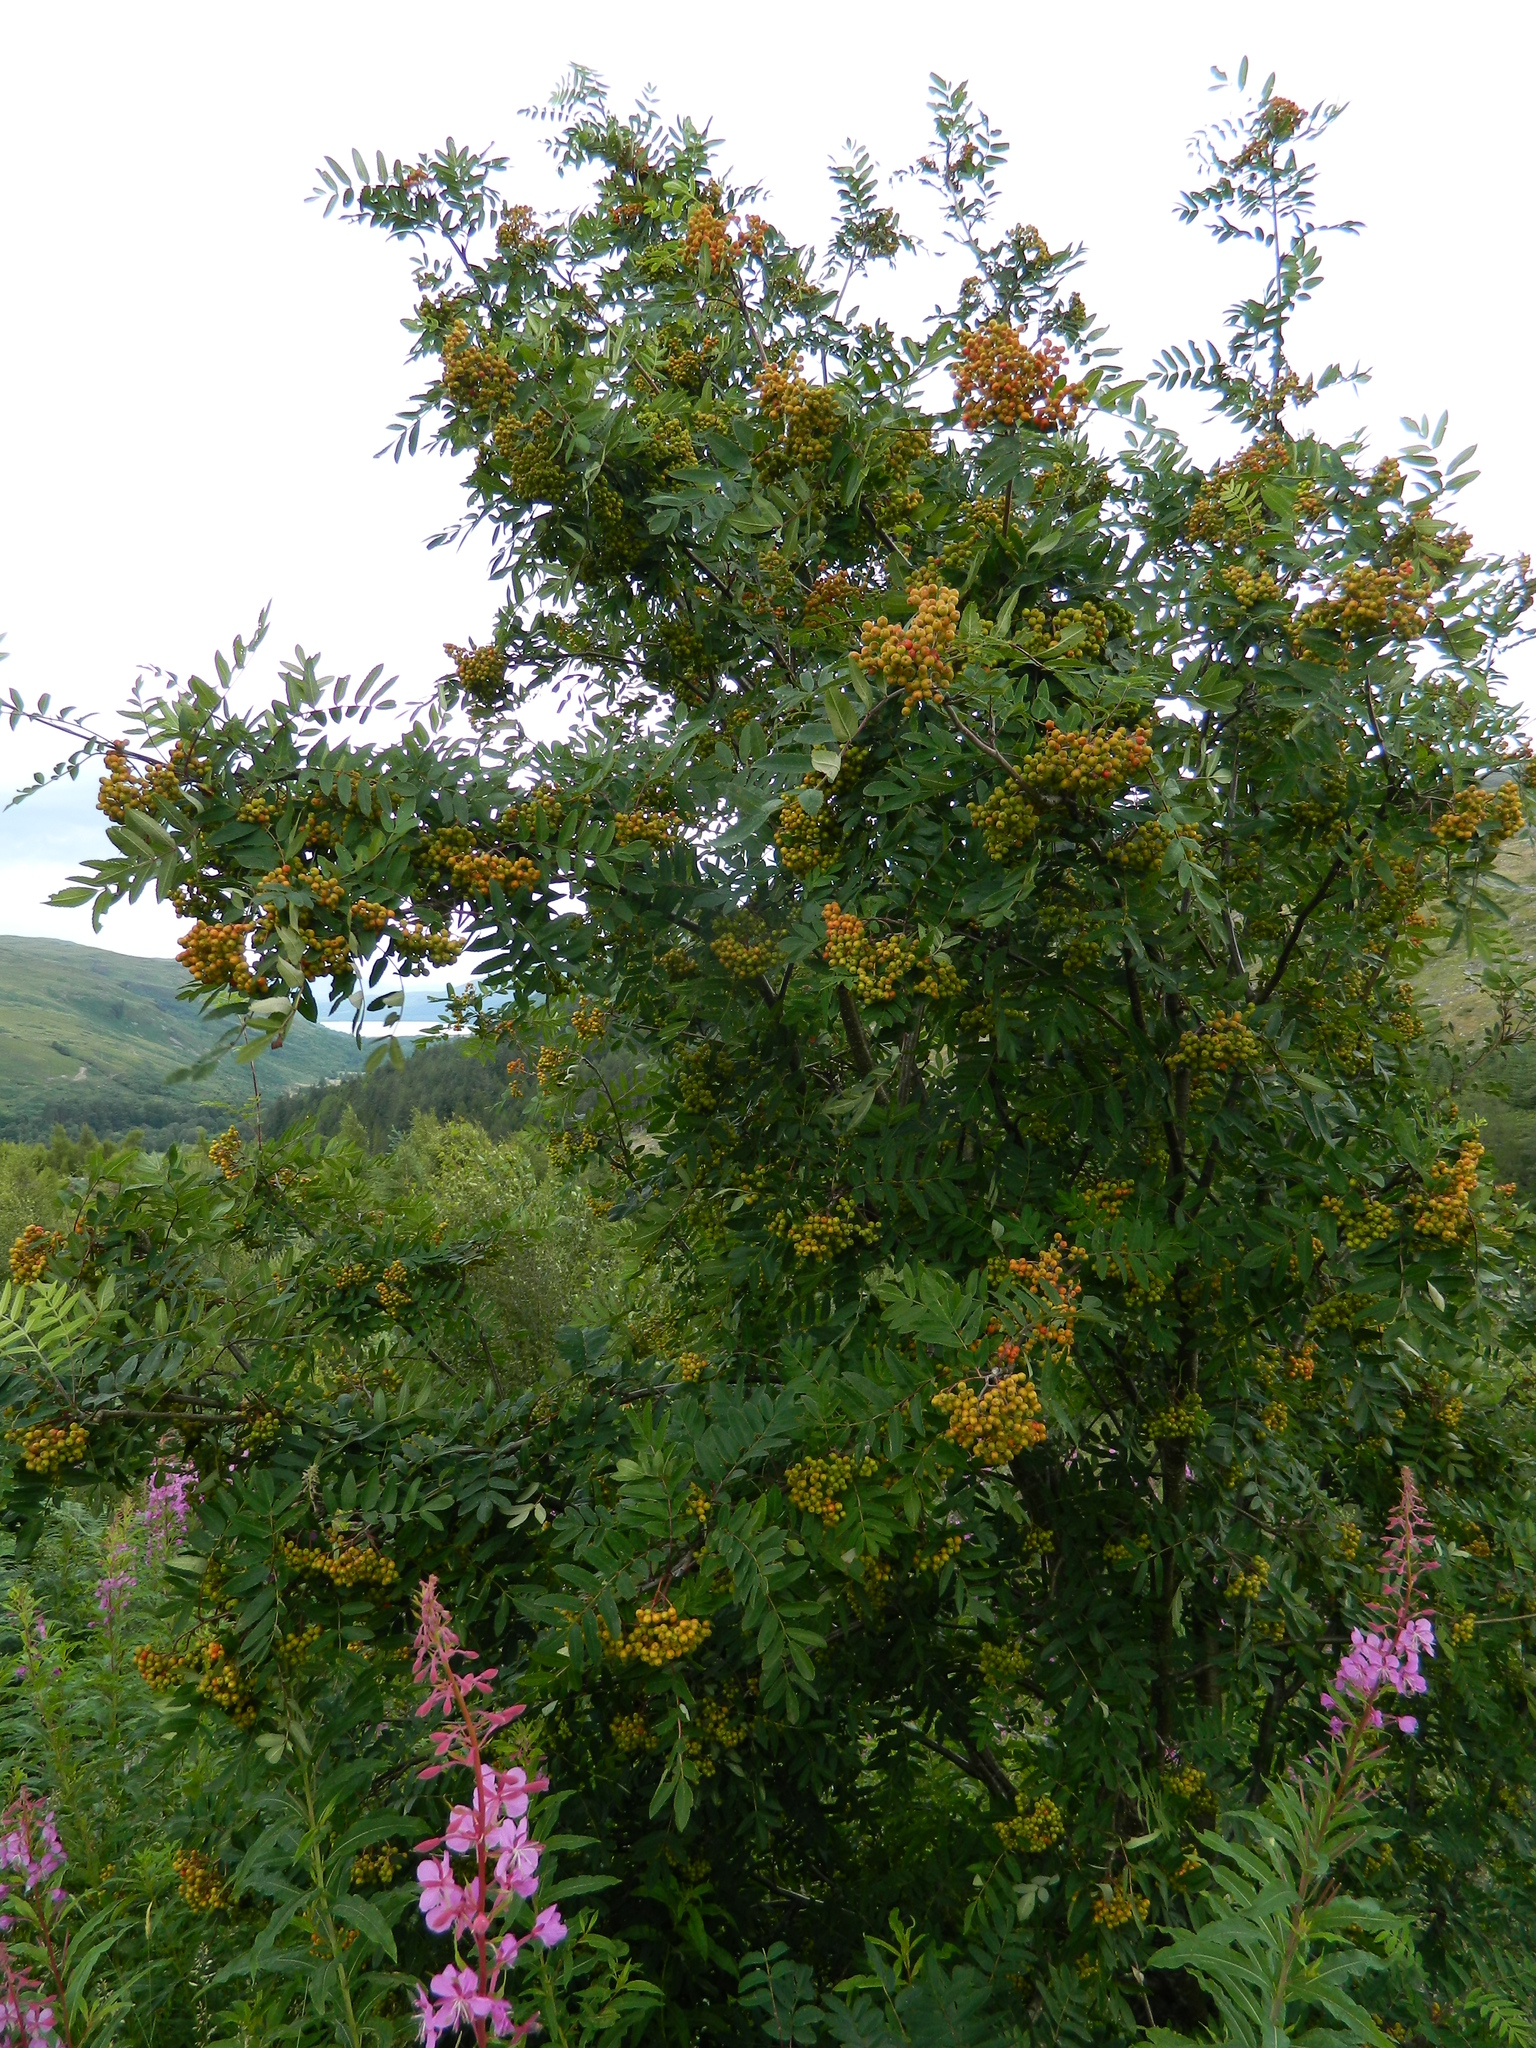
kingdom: Plantae
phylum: Tracheophyta
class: Magnoliopsida
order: Rosales
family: Rosaceae
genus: Sorbus
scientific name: Sorbus aucuparia
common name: Rowan
